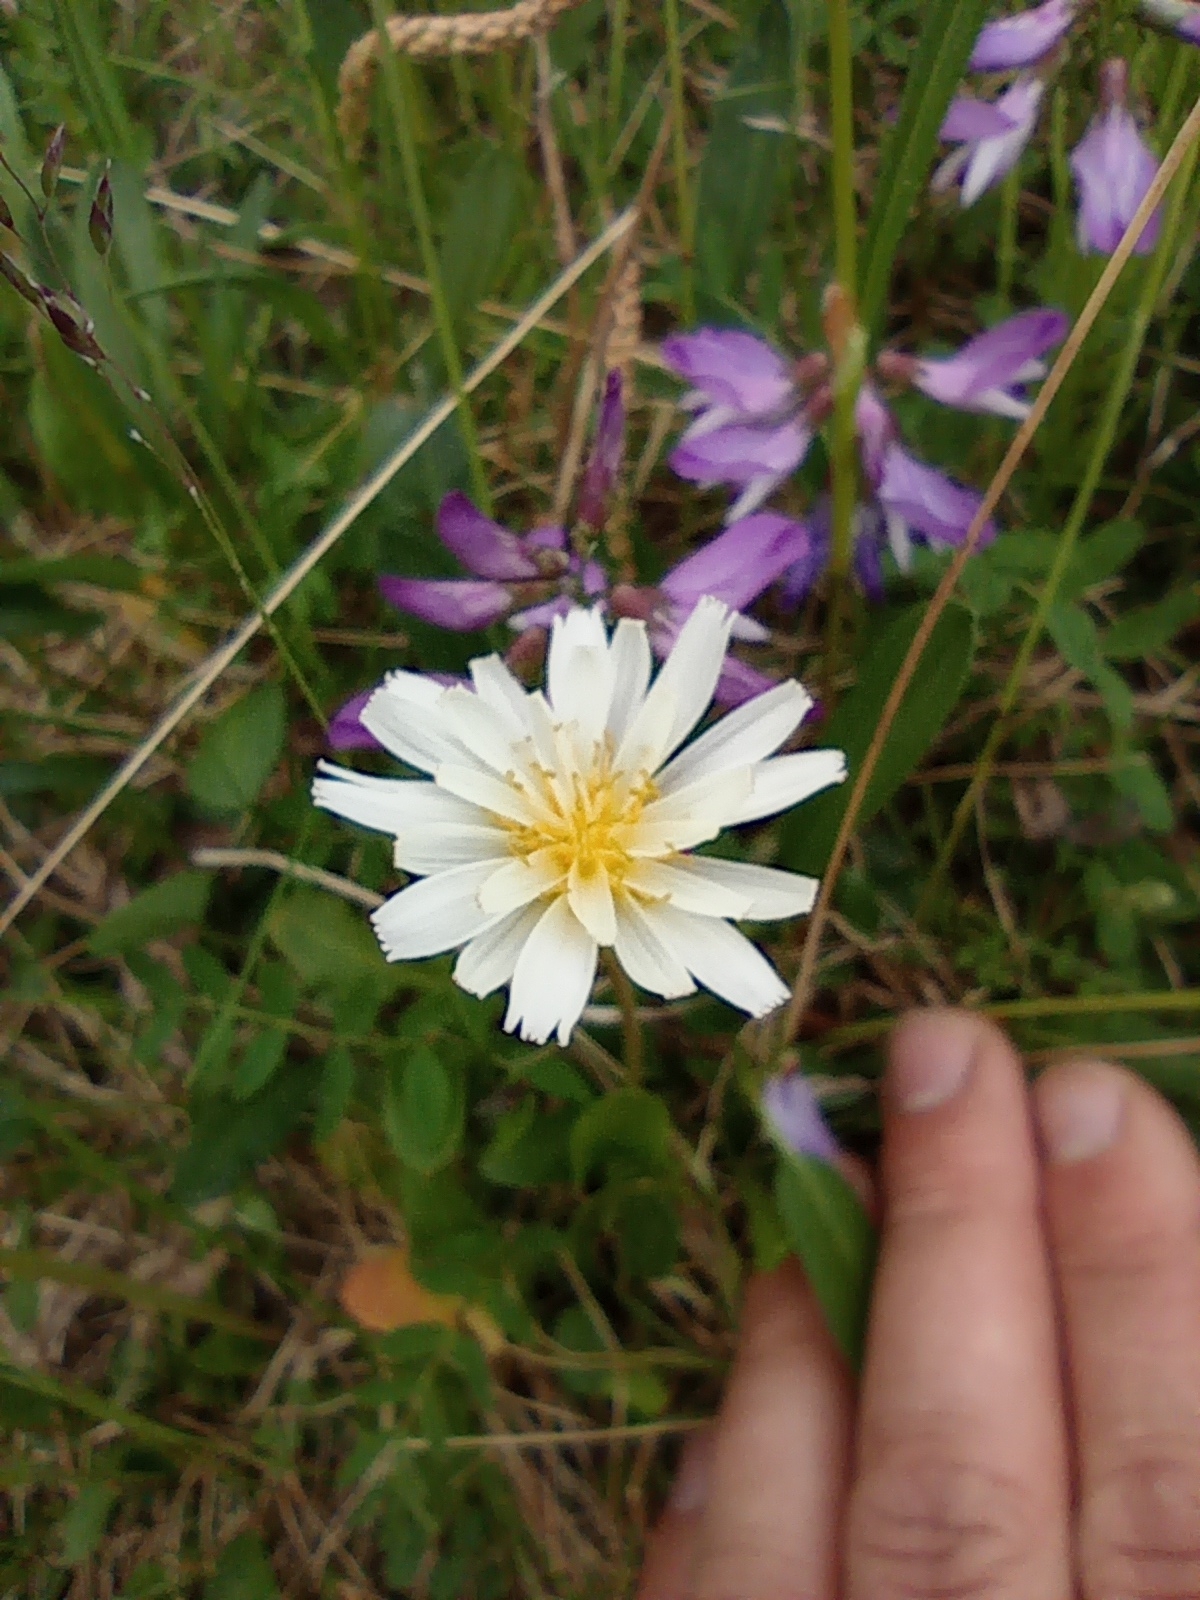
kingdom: Plantae
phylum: Tracheophyta
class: Magnoliopsida
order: Asterales
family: Asteraceae
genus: Taraxacum
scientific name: Taraxacum arcticum
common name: Arctic dandelion
